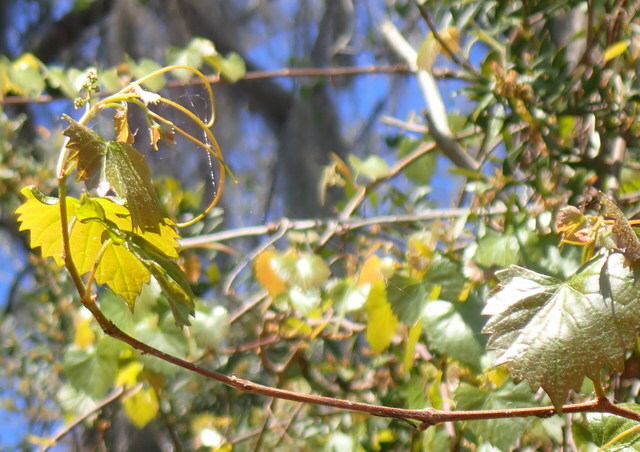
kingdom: Plantae
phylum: Tracheophyta
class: Magnoliopsida
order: Vitales
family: Vitaceae
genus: Vitis
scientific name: Vitis rotundifolia
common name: Muscadine grape
